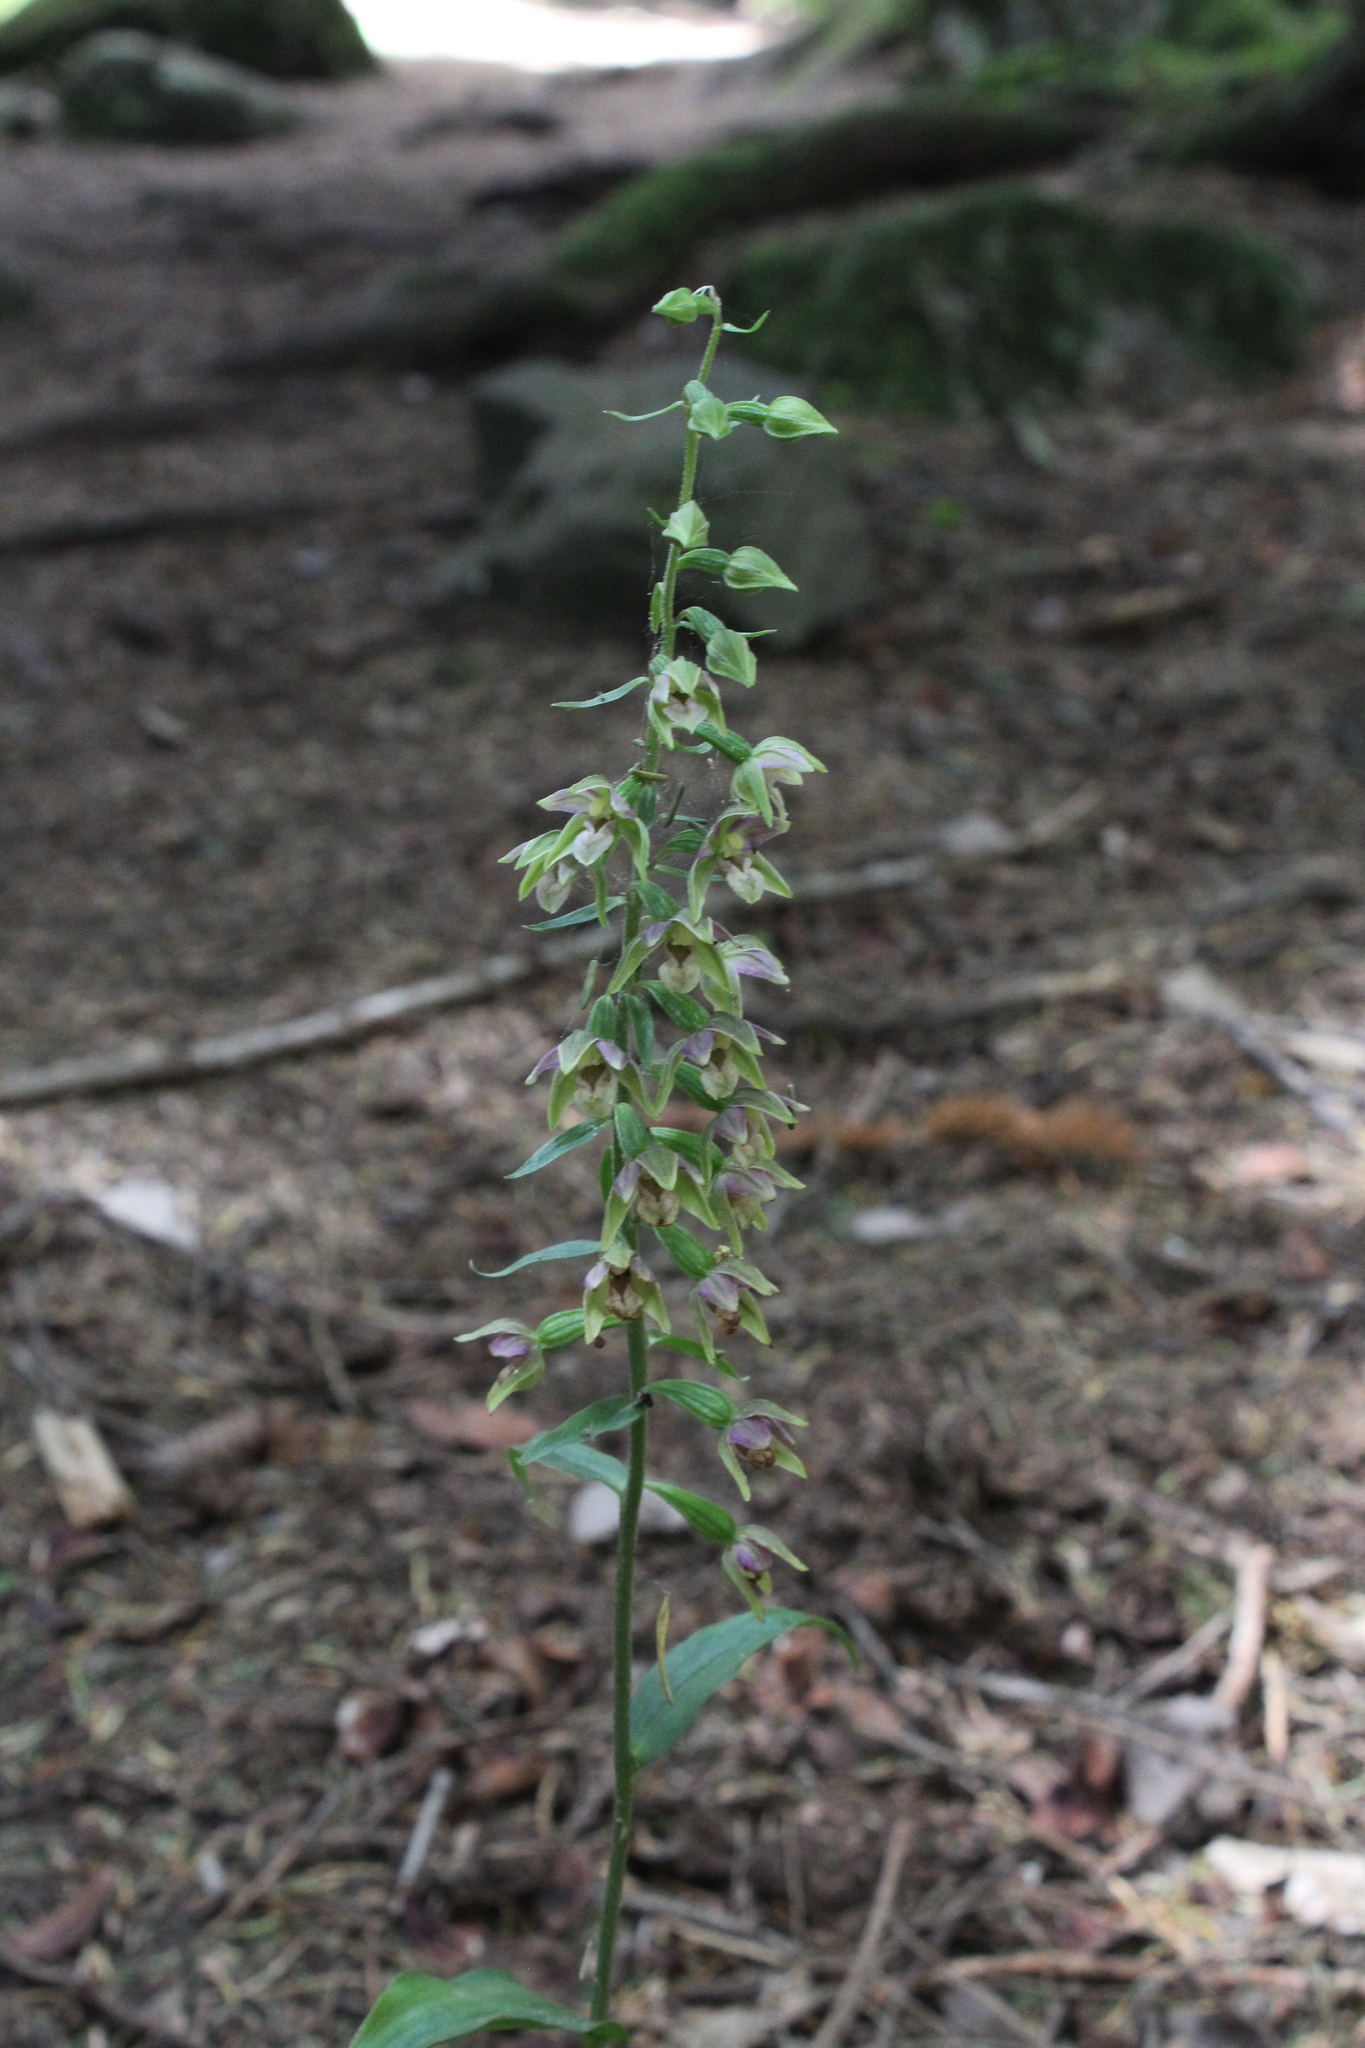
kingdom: Plantae
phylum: Tracheophyta
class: Liliopsida
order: Asparagales
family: Orchidaceae
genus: Epipactis
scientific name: Epipactis helleborine
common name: Broad-leaved helleborine
